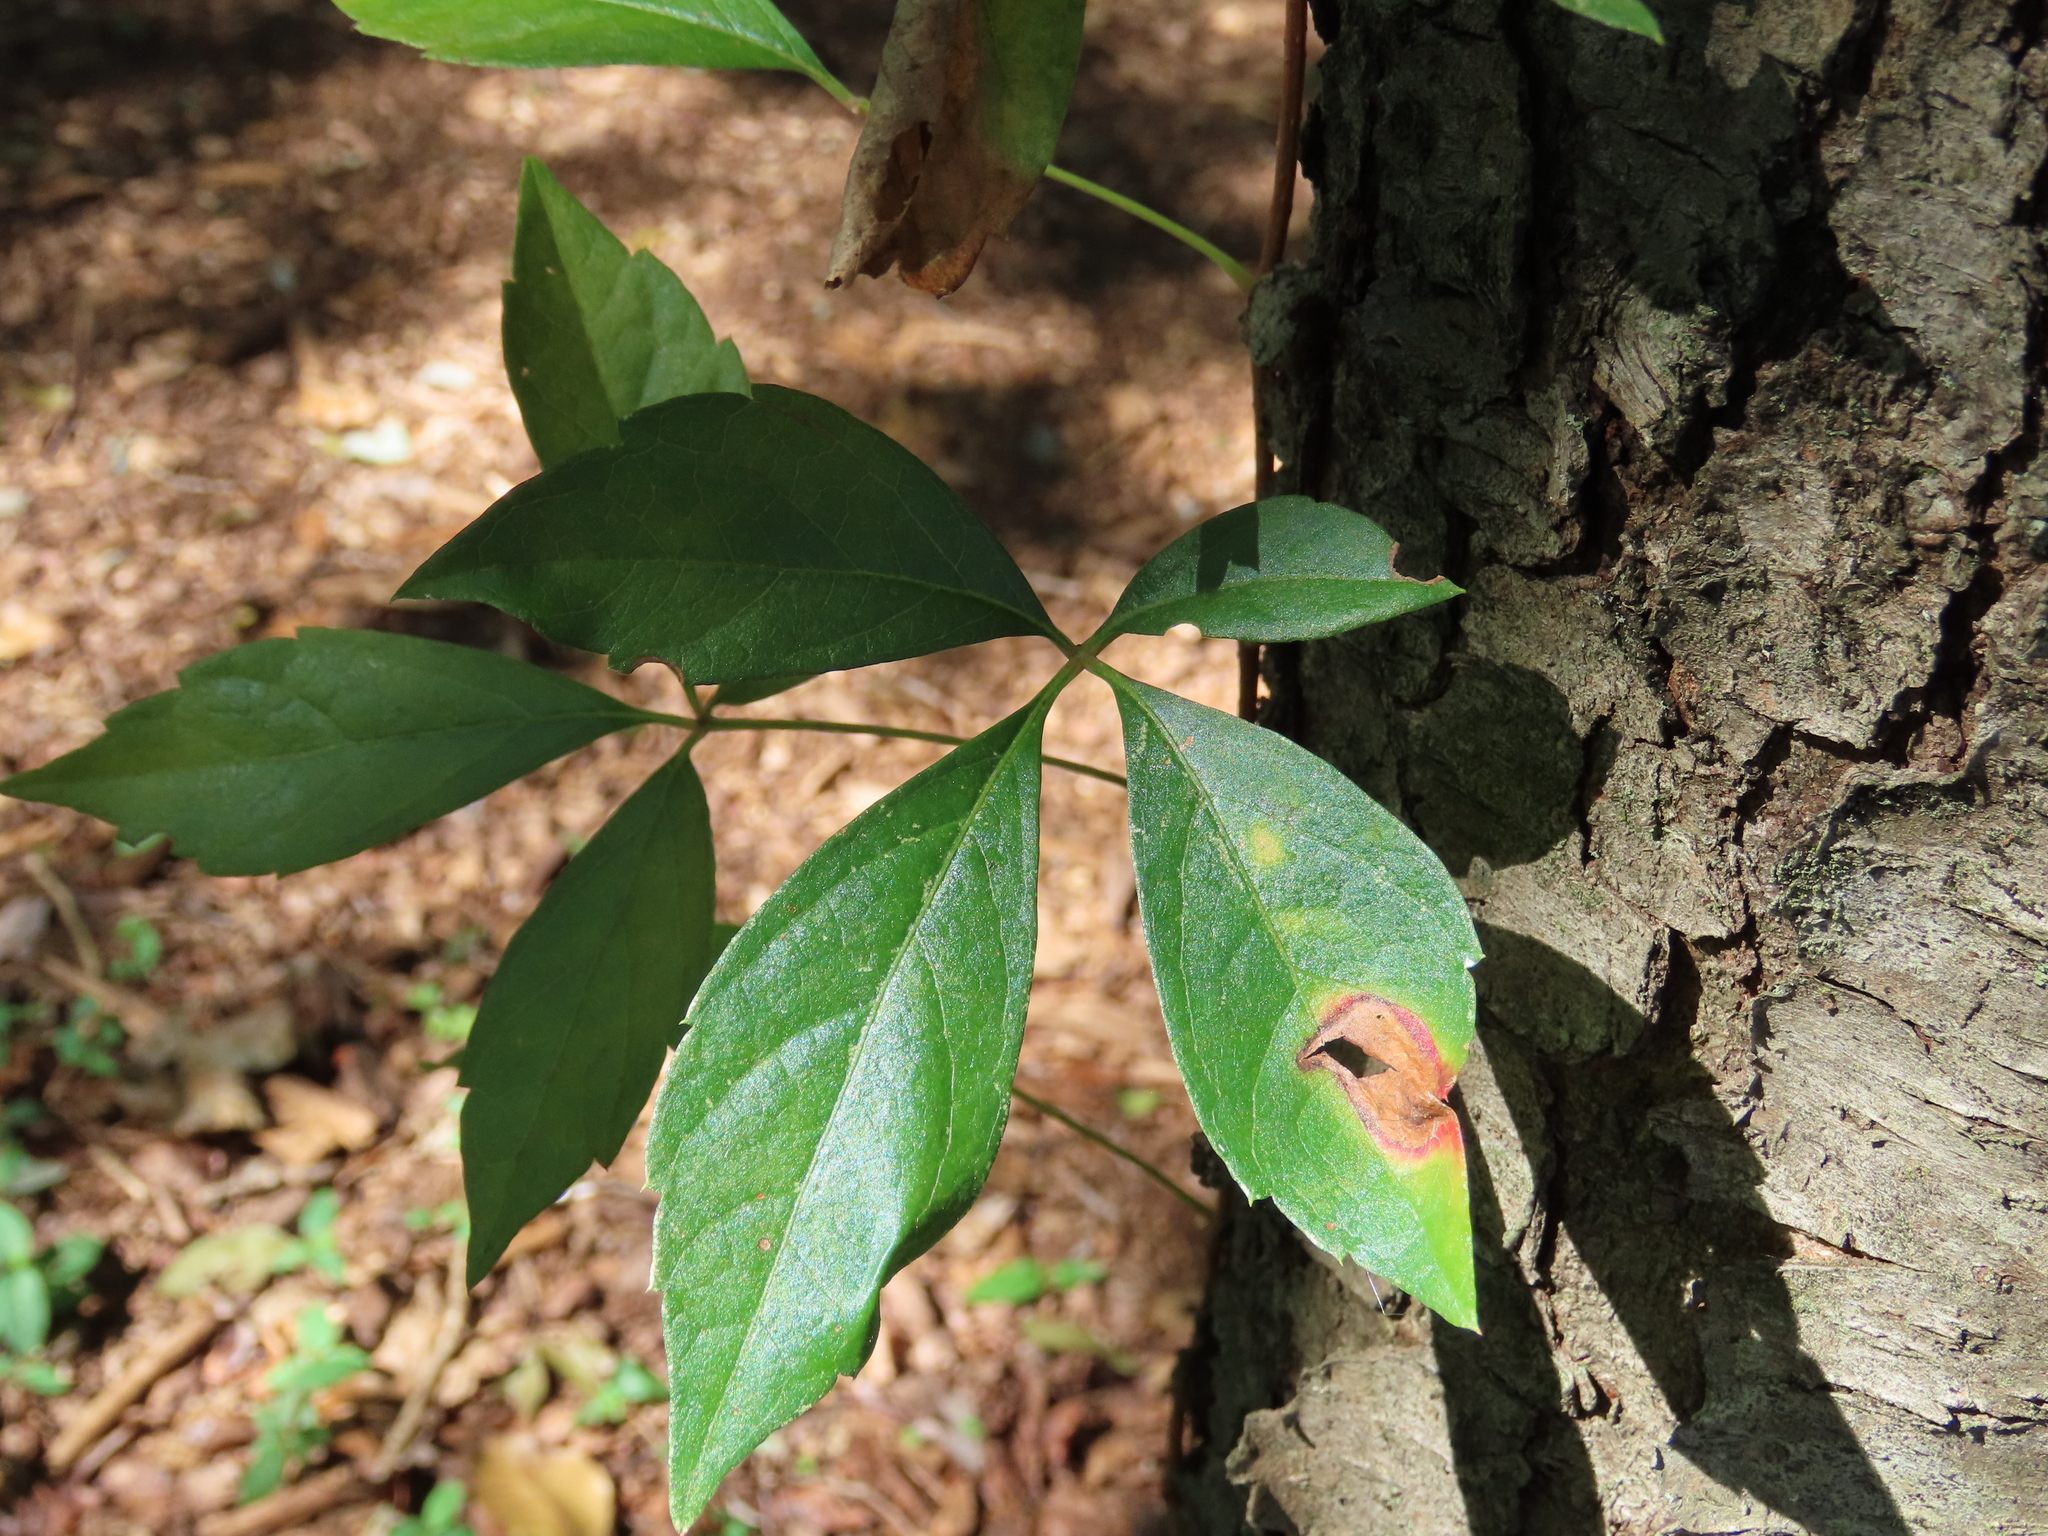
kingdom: Plantae
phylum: Tracheophyta
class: Magnoliopsida
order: Vitales
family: Vitaceae
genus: Parthenocissus
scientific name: Parthenocissus quinquefolia
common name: Virginia-creeper
